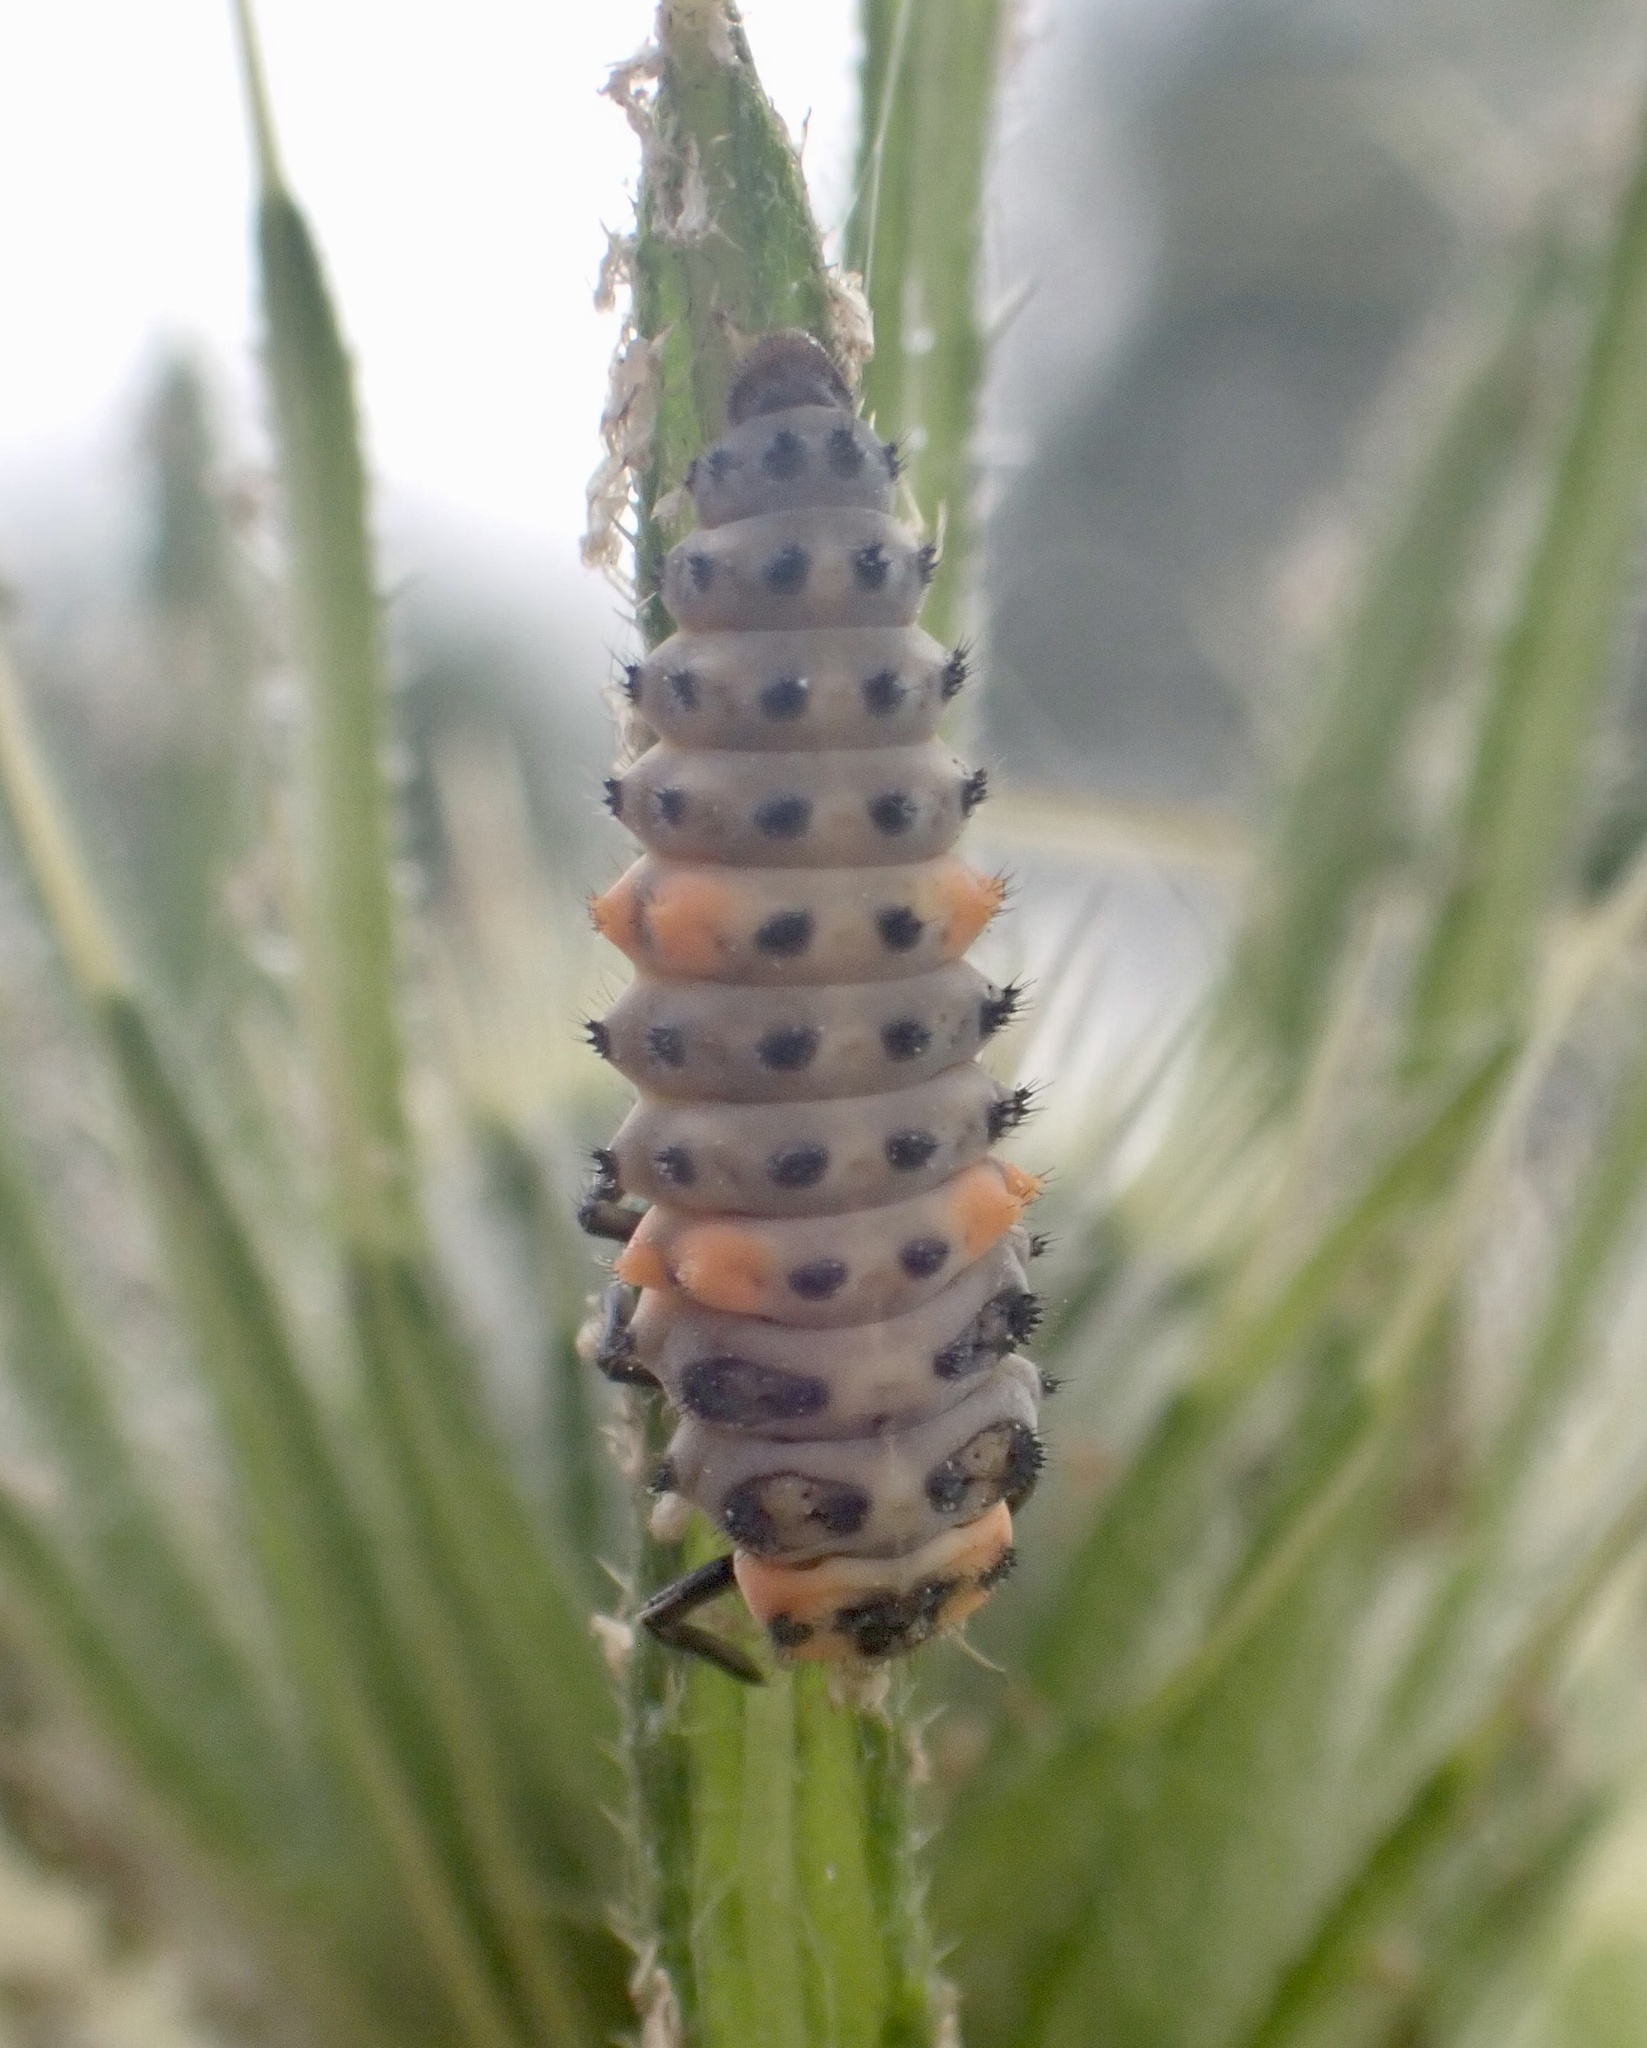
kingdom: Animalia
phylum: Arthropoda
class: Insecta
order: Coleoptera
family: Coccinellidae
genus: Coccinella
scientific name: Coccinella septempunctata
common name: Sevenspotted lady beetle
